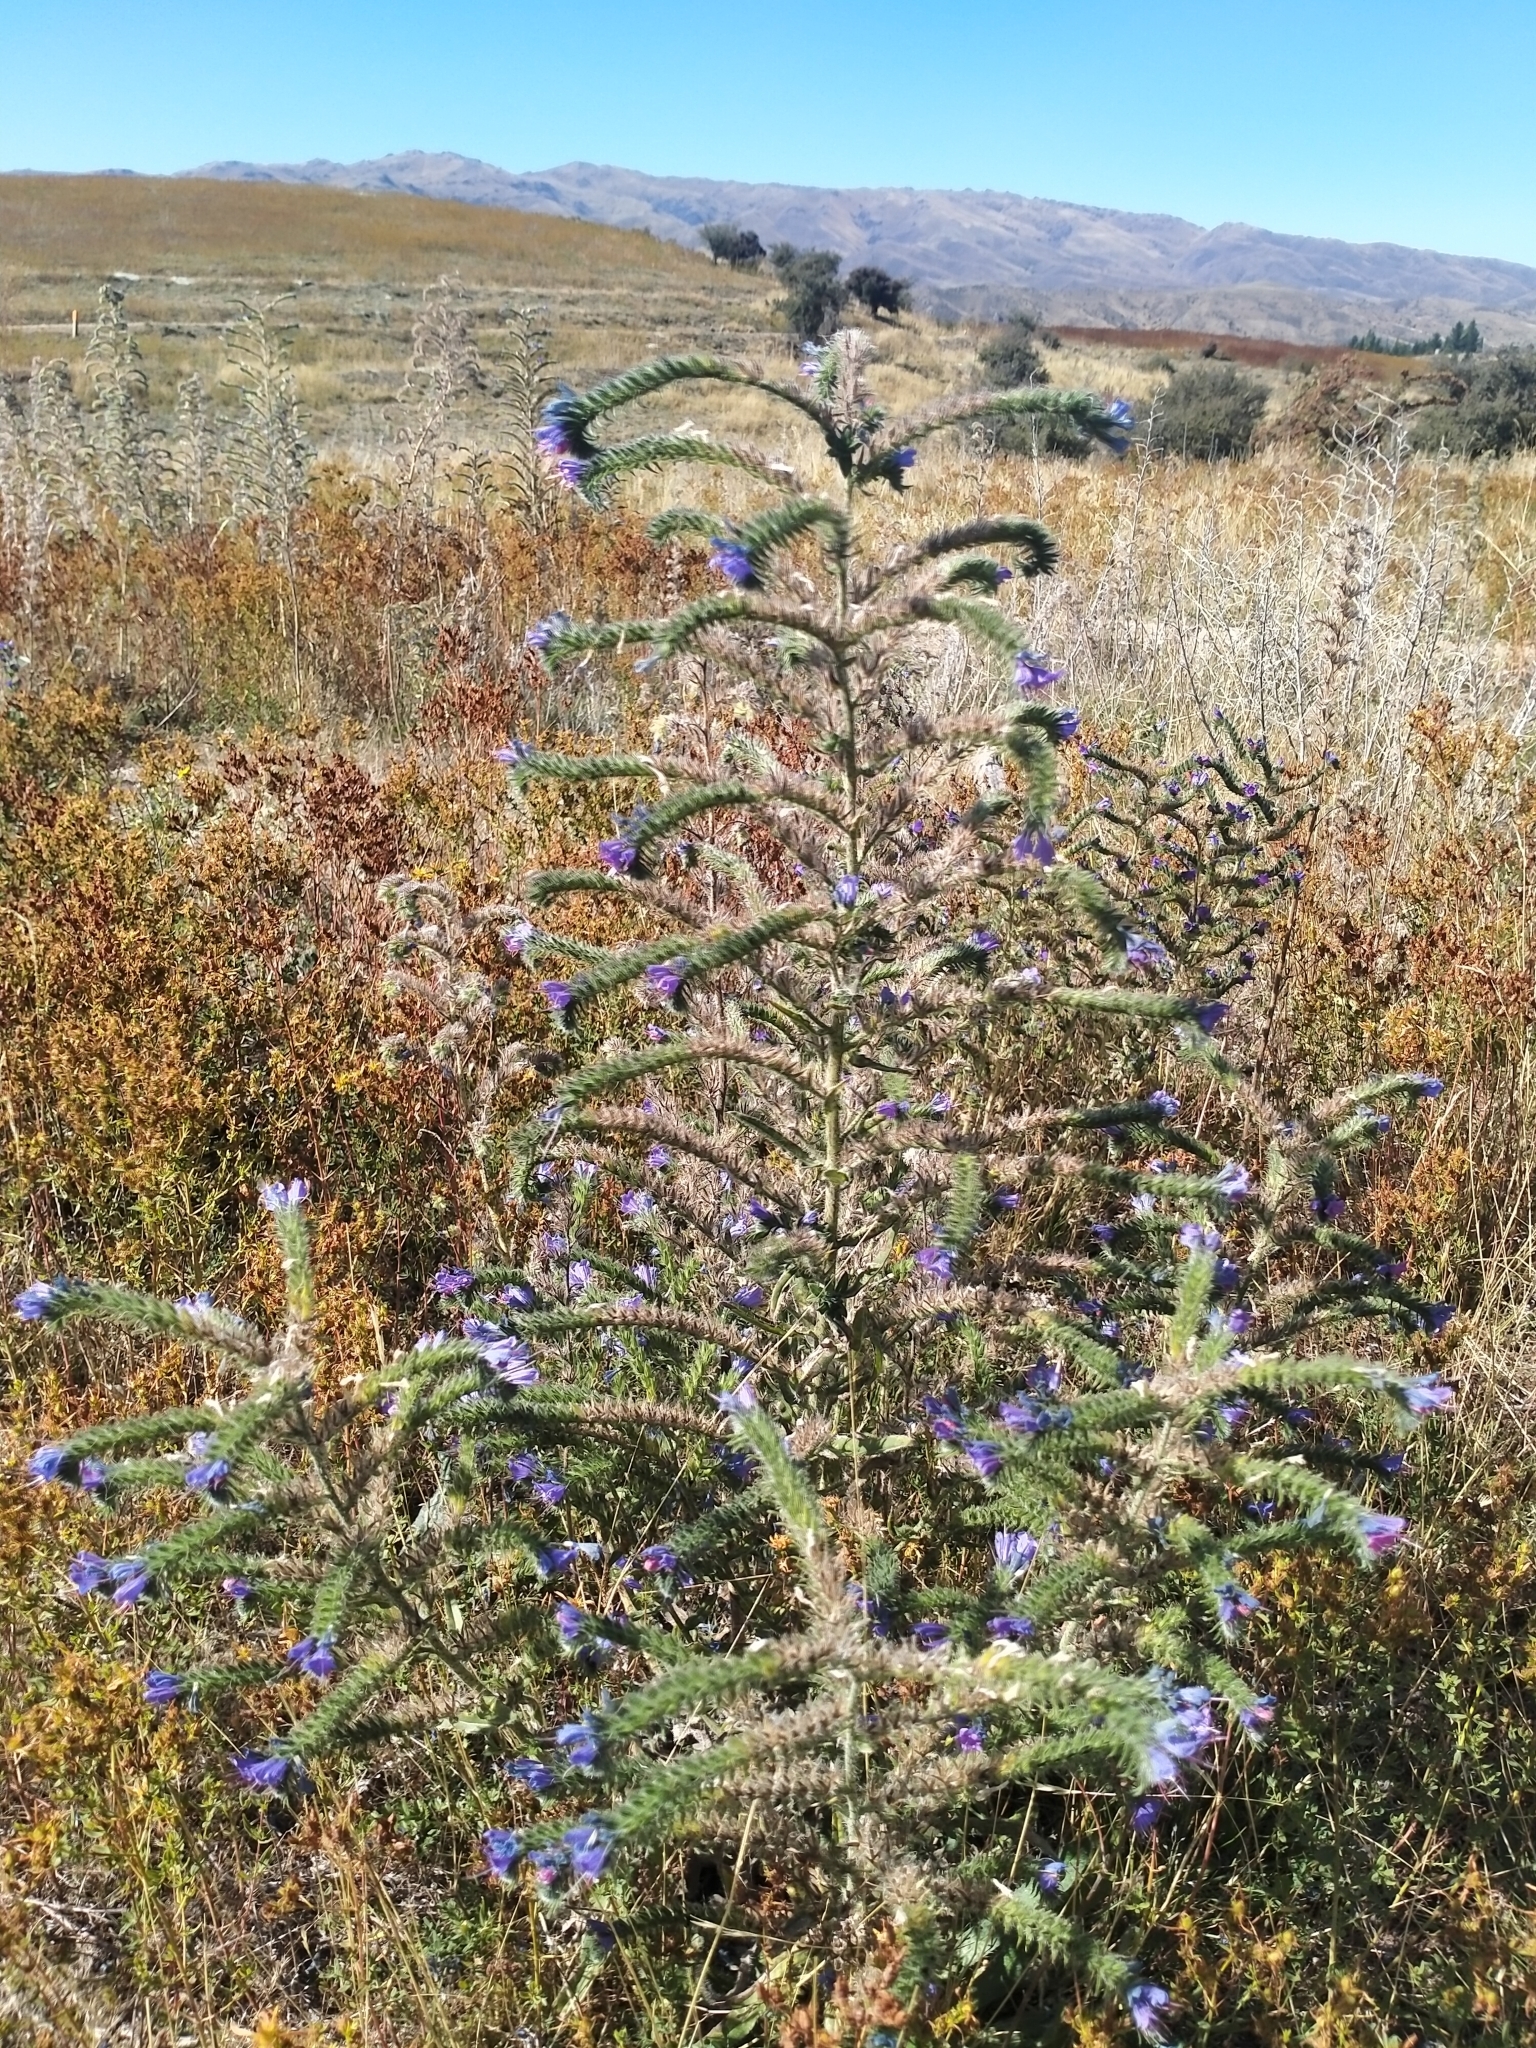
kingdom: Plantae
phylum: Tracheophyta
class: Magnoliopsida
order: Boraginales
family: Boraginaceae
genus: Echium
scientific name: Echium vulgare
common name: Common viper's bugloss
